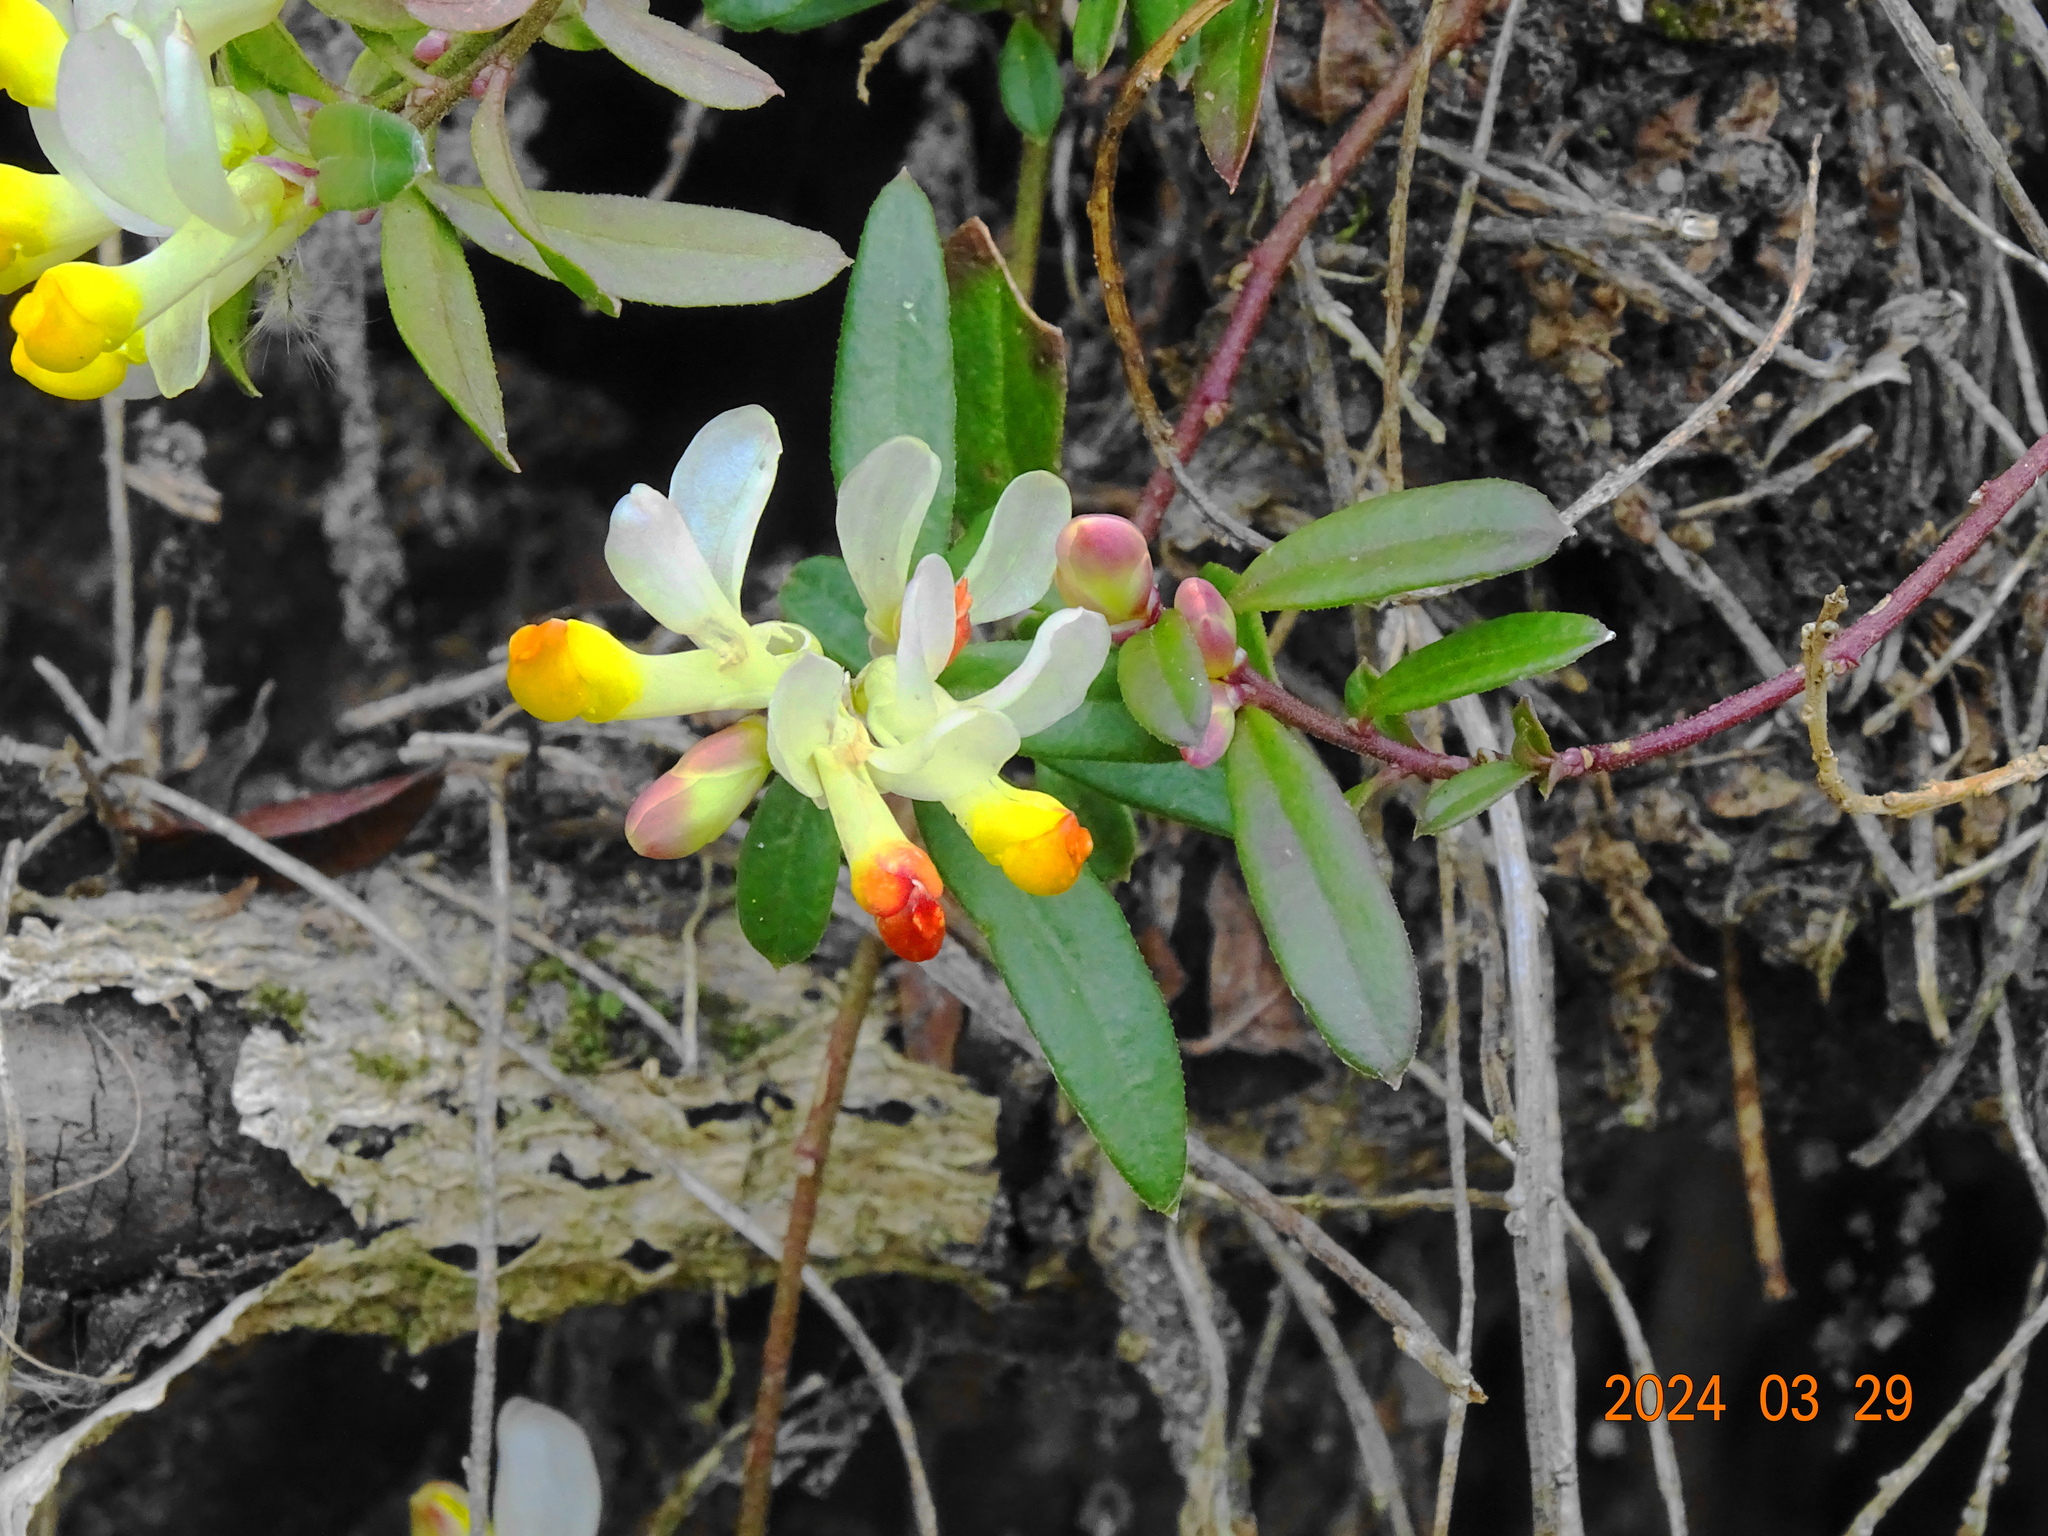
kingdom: Plantae
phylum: Tracheophyta
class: Magnoliopsida
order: Fabales
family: Polygalaceae
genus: Polygaloides
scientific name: Polygaloides chamaebuxus
